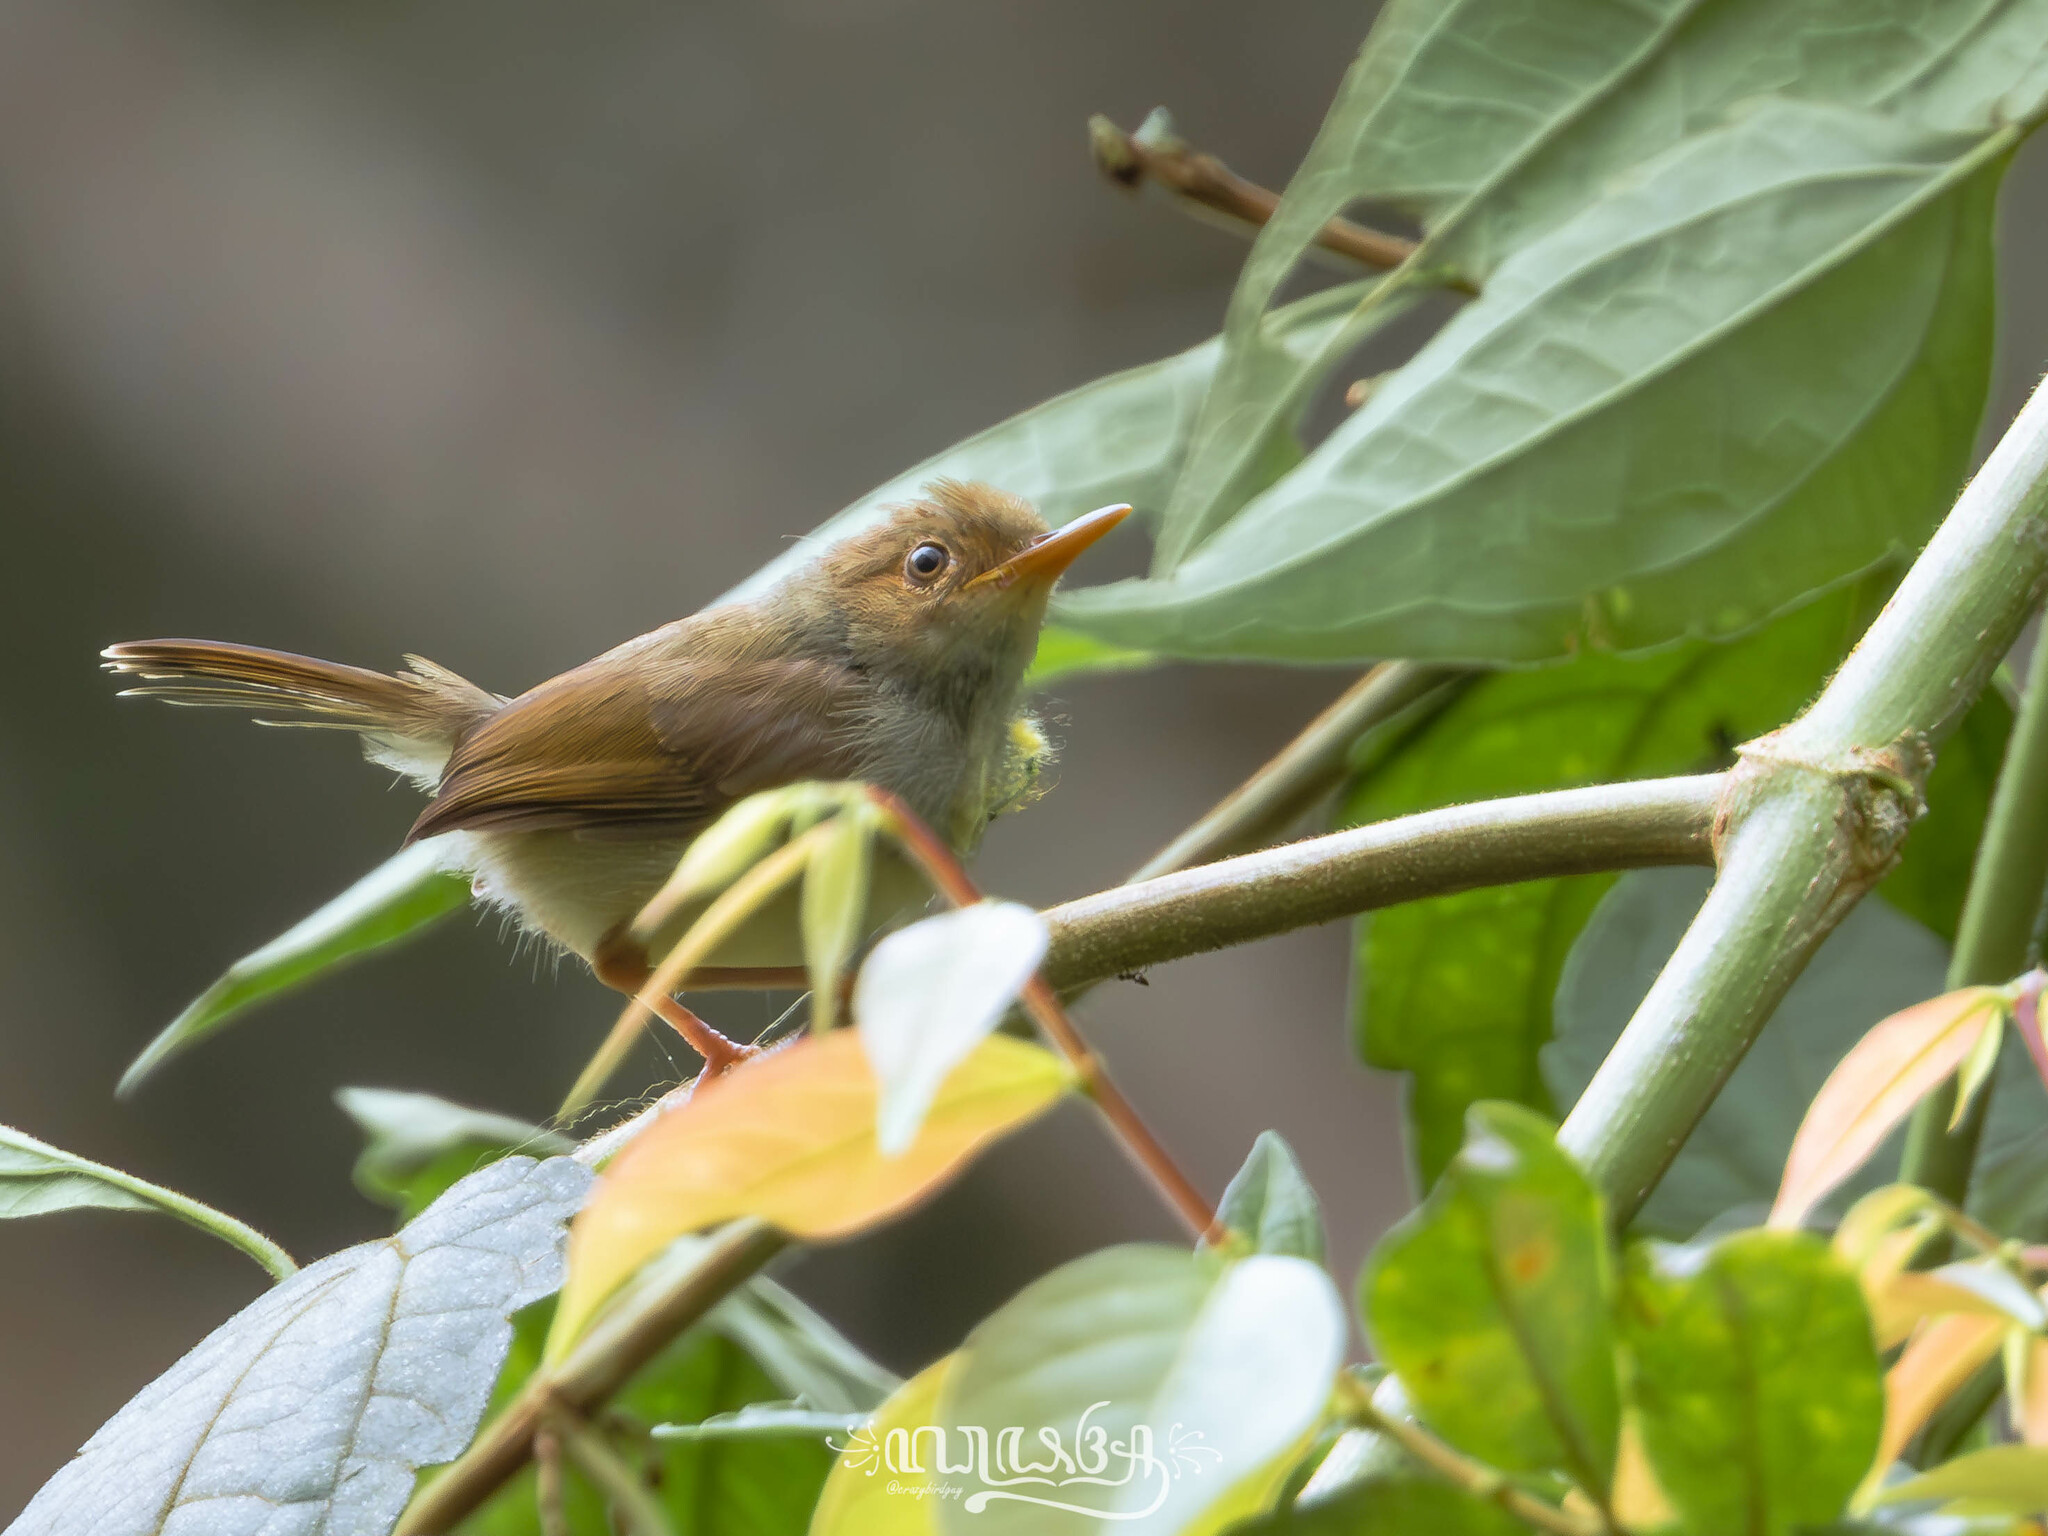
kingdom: Animalia
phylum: Chordata
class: Aves
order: Passeriformes
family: Cisticolidae
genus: Orthotomus
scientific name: Orthotomus sepium
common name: Olive-backed tailorbird
